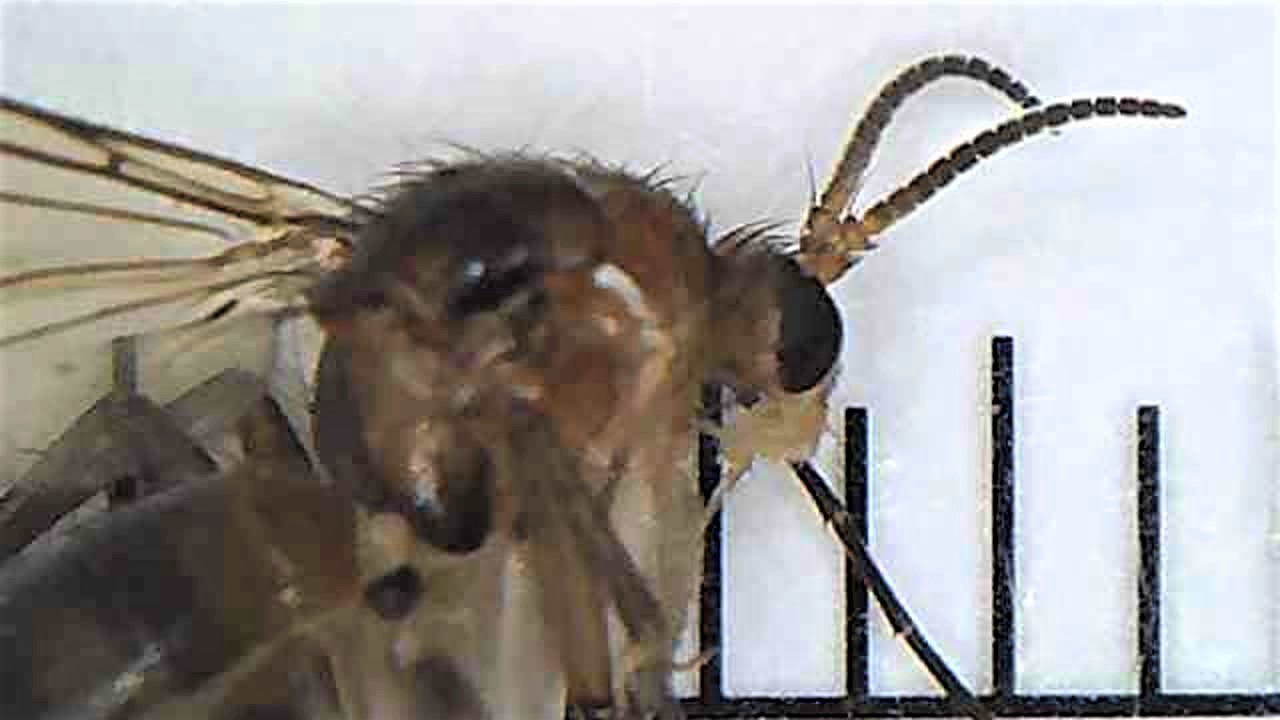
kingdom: Animalia
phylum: Arthropoda
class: Insecta
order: Diptera
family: Mycetophilidae
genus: Leia
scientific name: Leia arsona
